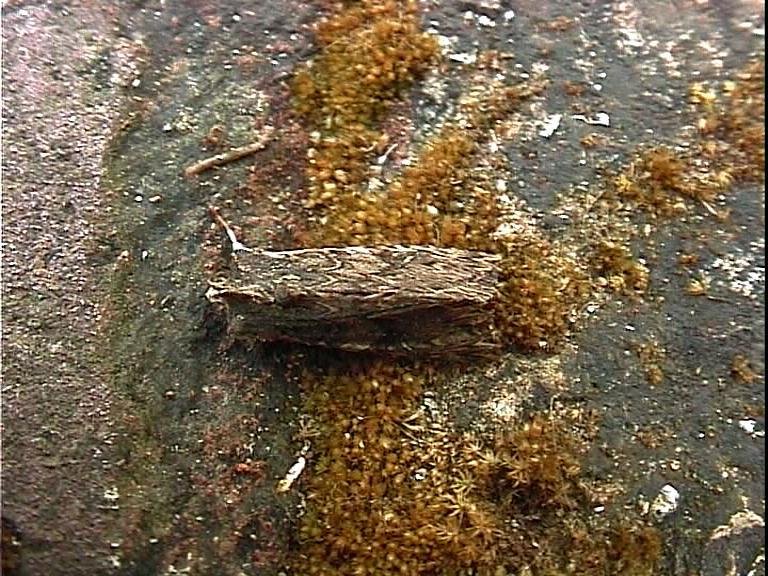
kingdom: Animalia
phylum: Arthropoda
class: Insecta
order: Lepidoptera
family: Noctuidae
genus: Meterana
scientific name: Meterana alcyone
